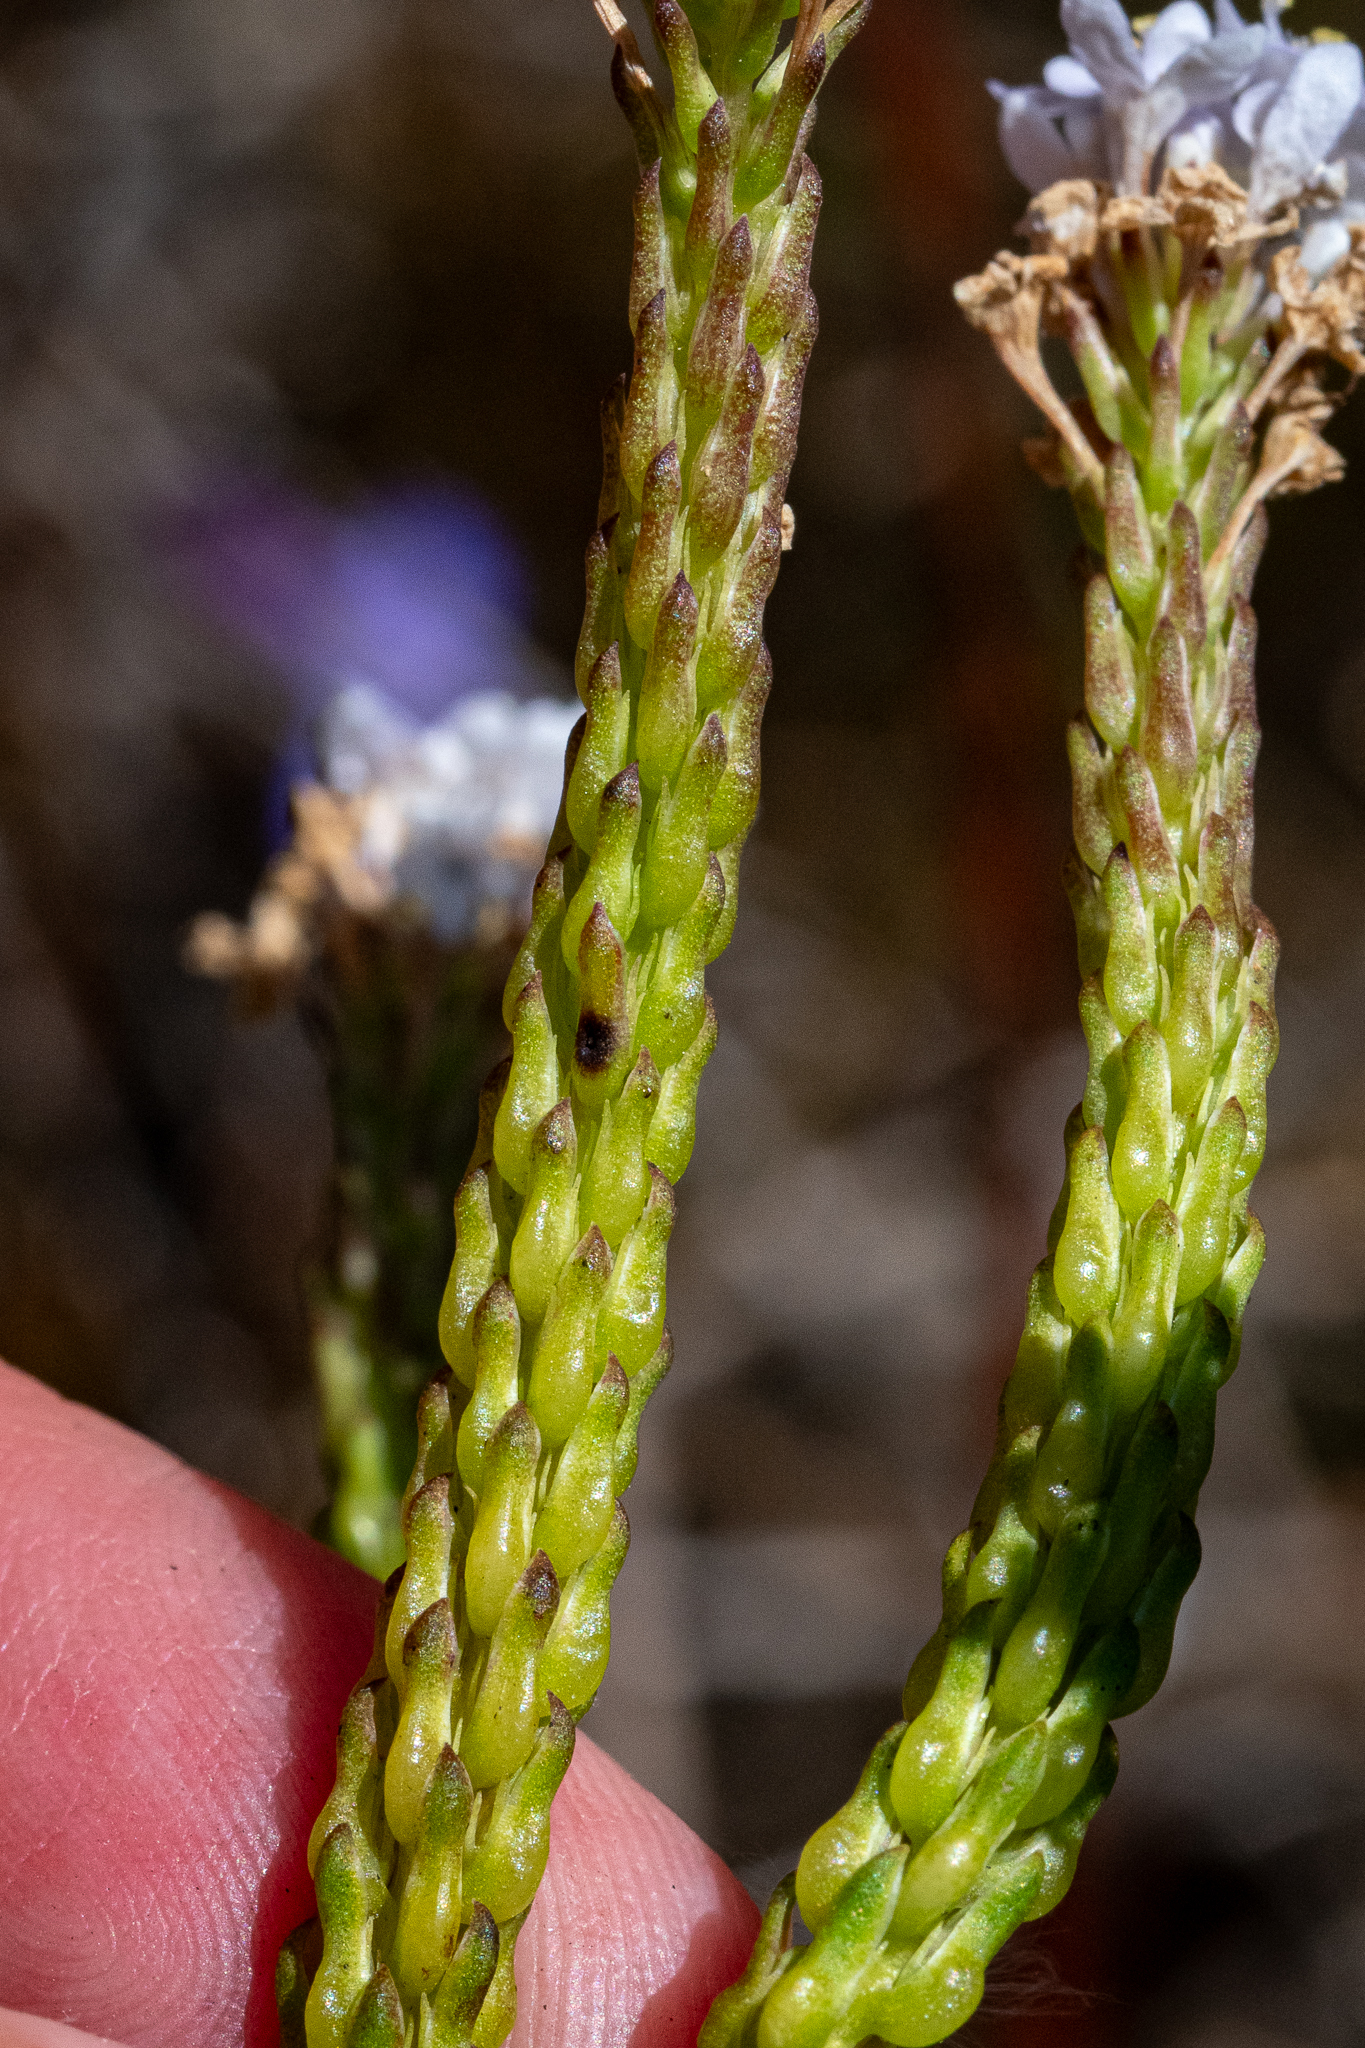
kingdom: Plantae
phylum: Tracheophyta
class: Magnoliopsida
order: Lamiales
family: Scrophulariaceae
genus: Pseudoselago
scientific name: Pseudoselago spuria
